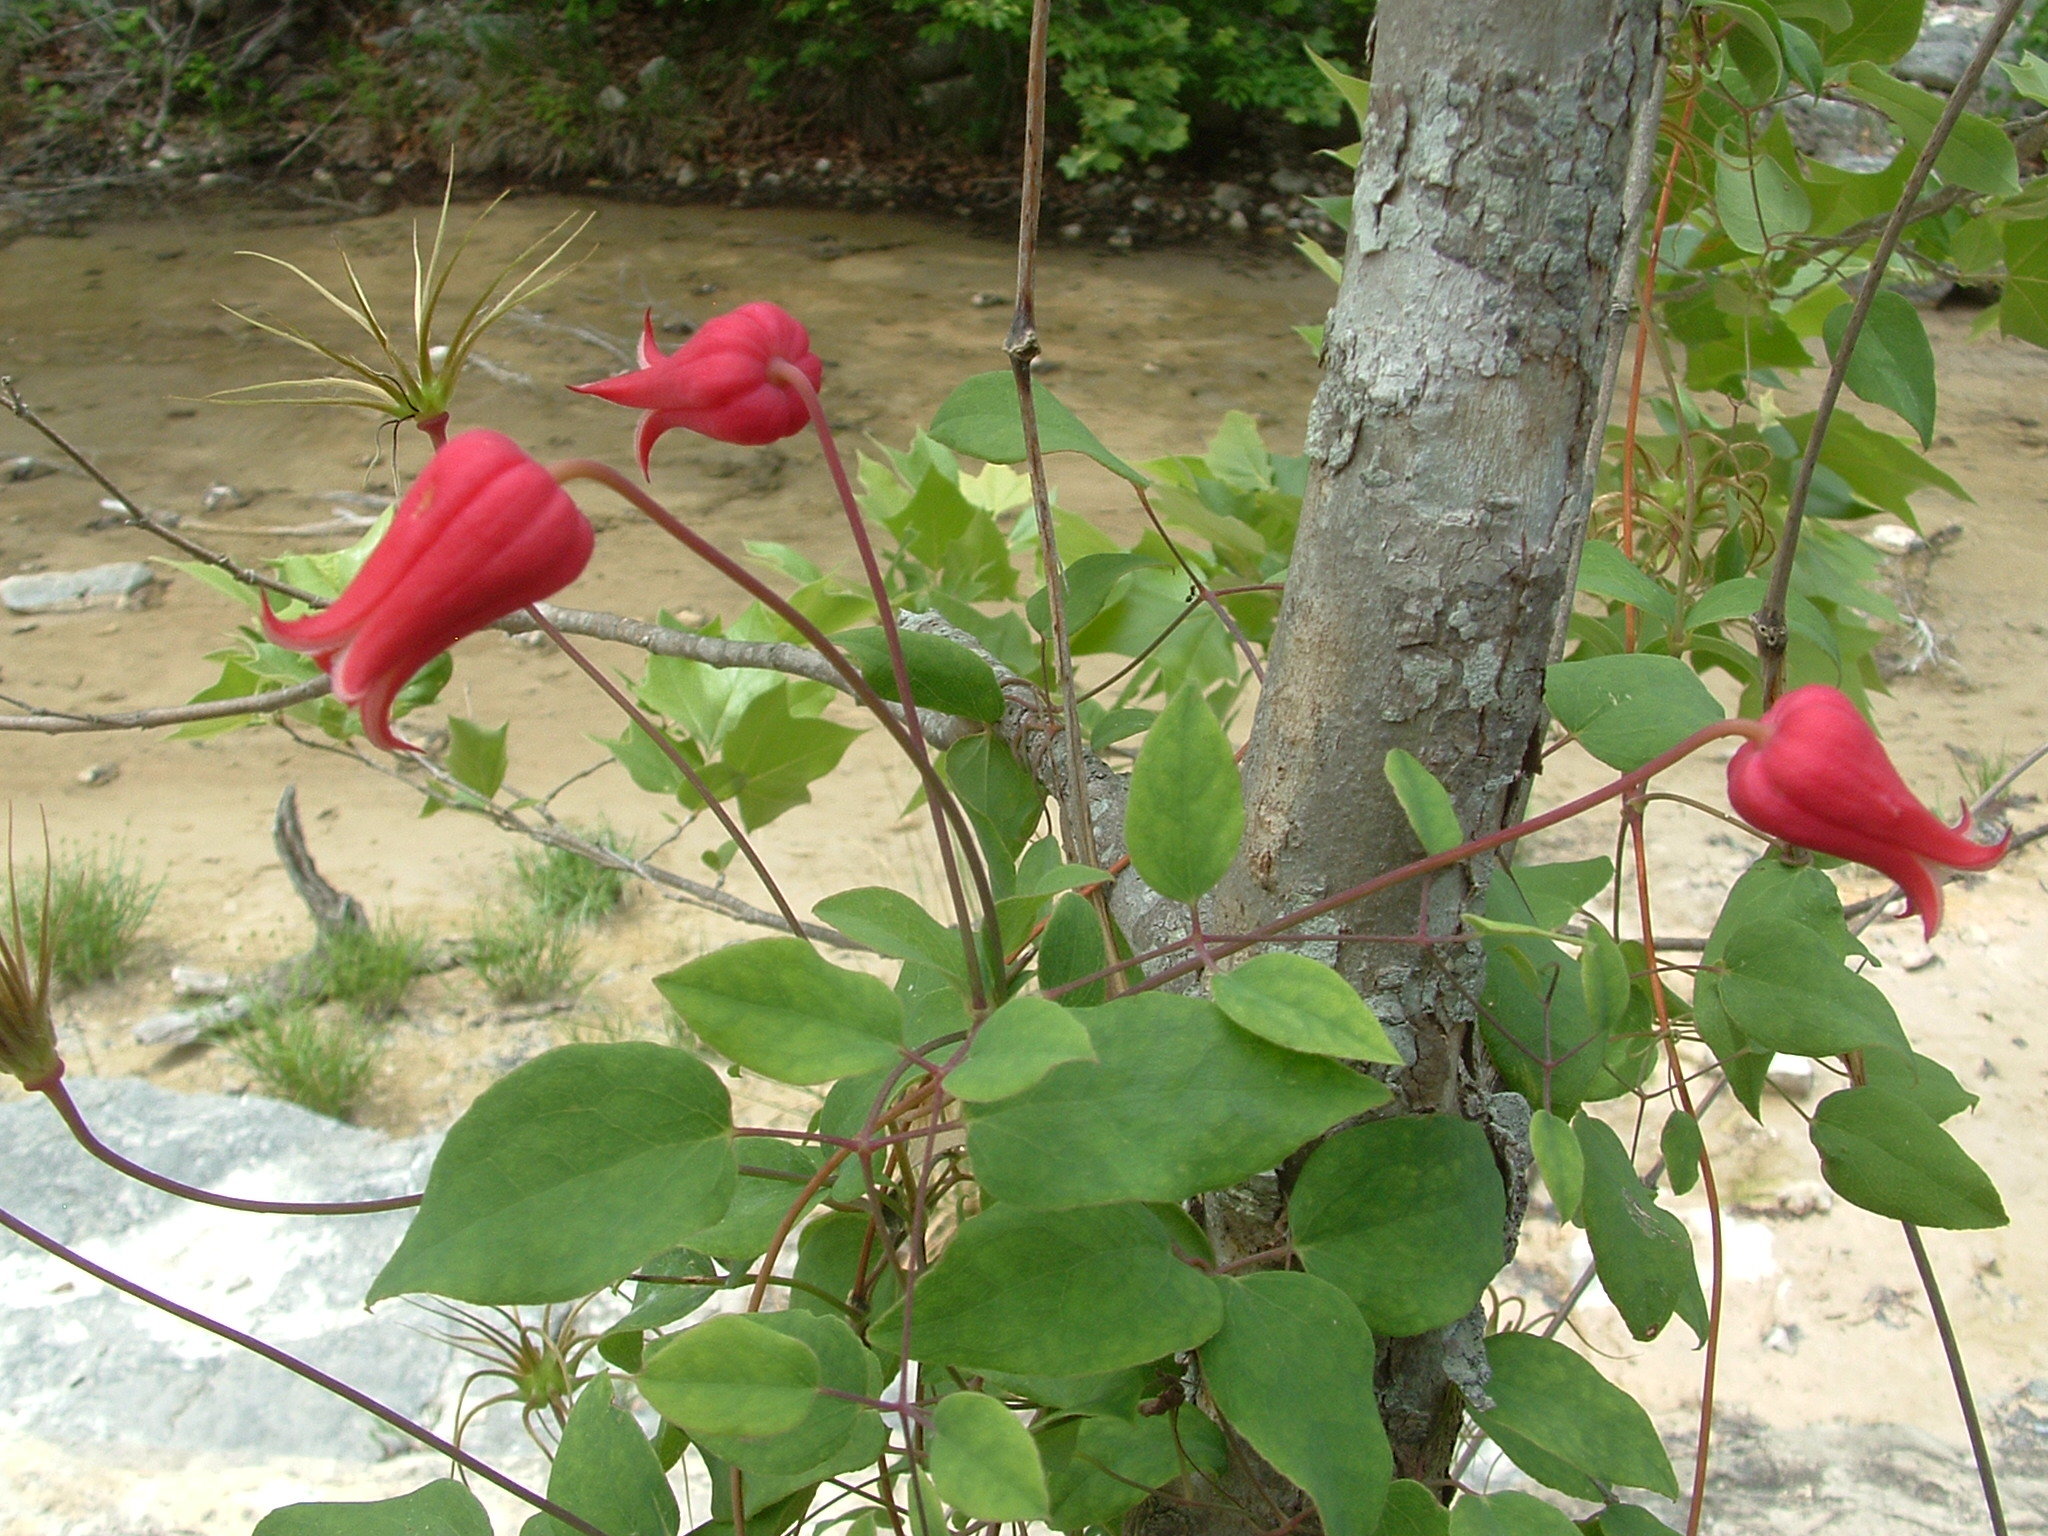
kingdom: Plantae
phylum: Tracheophyta
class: Magnoliopsida
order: Ranunculales
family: Ranunculaceae
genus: Clematis
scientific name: Clematis texensis
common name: Crimson clematis
